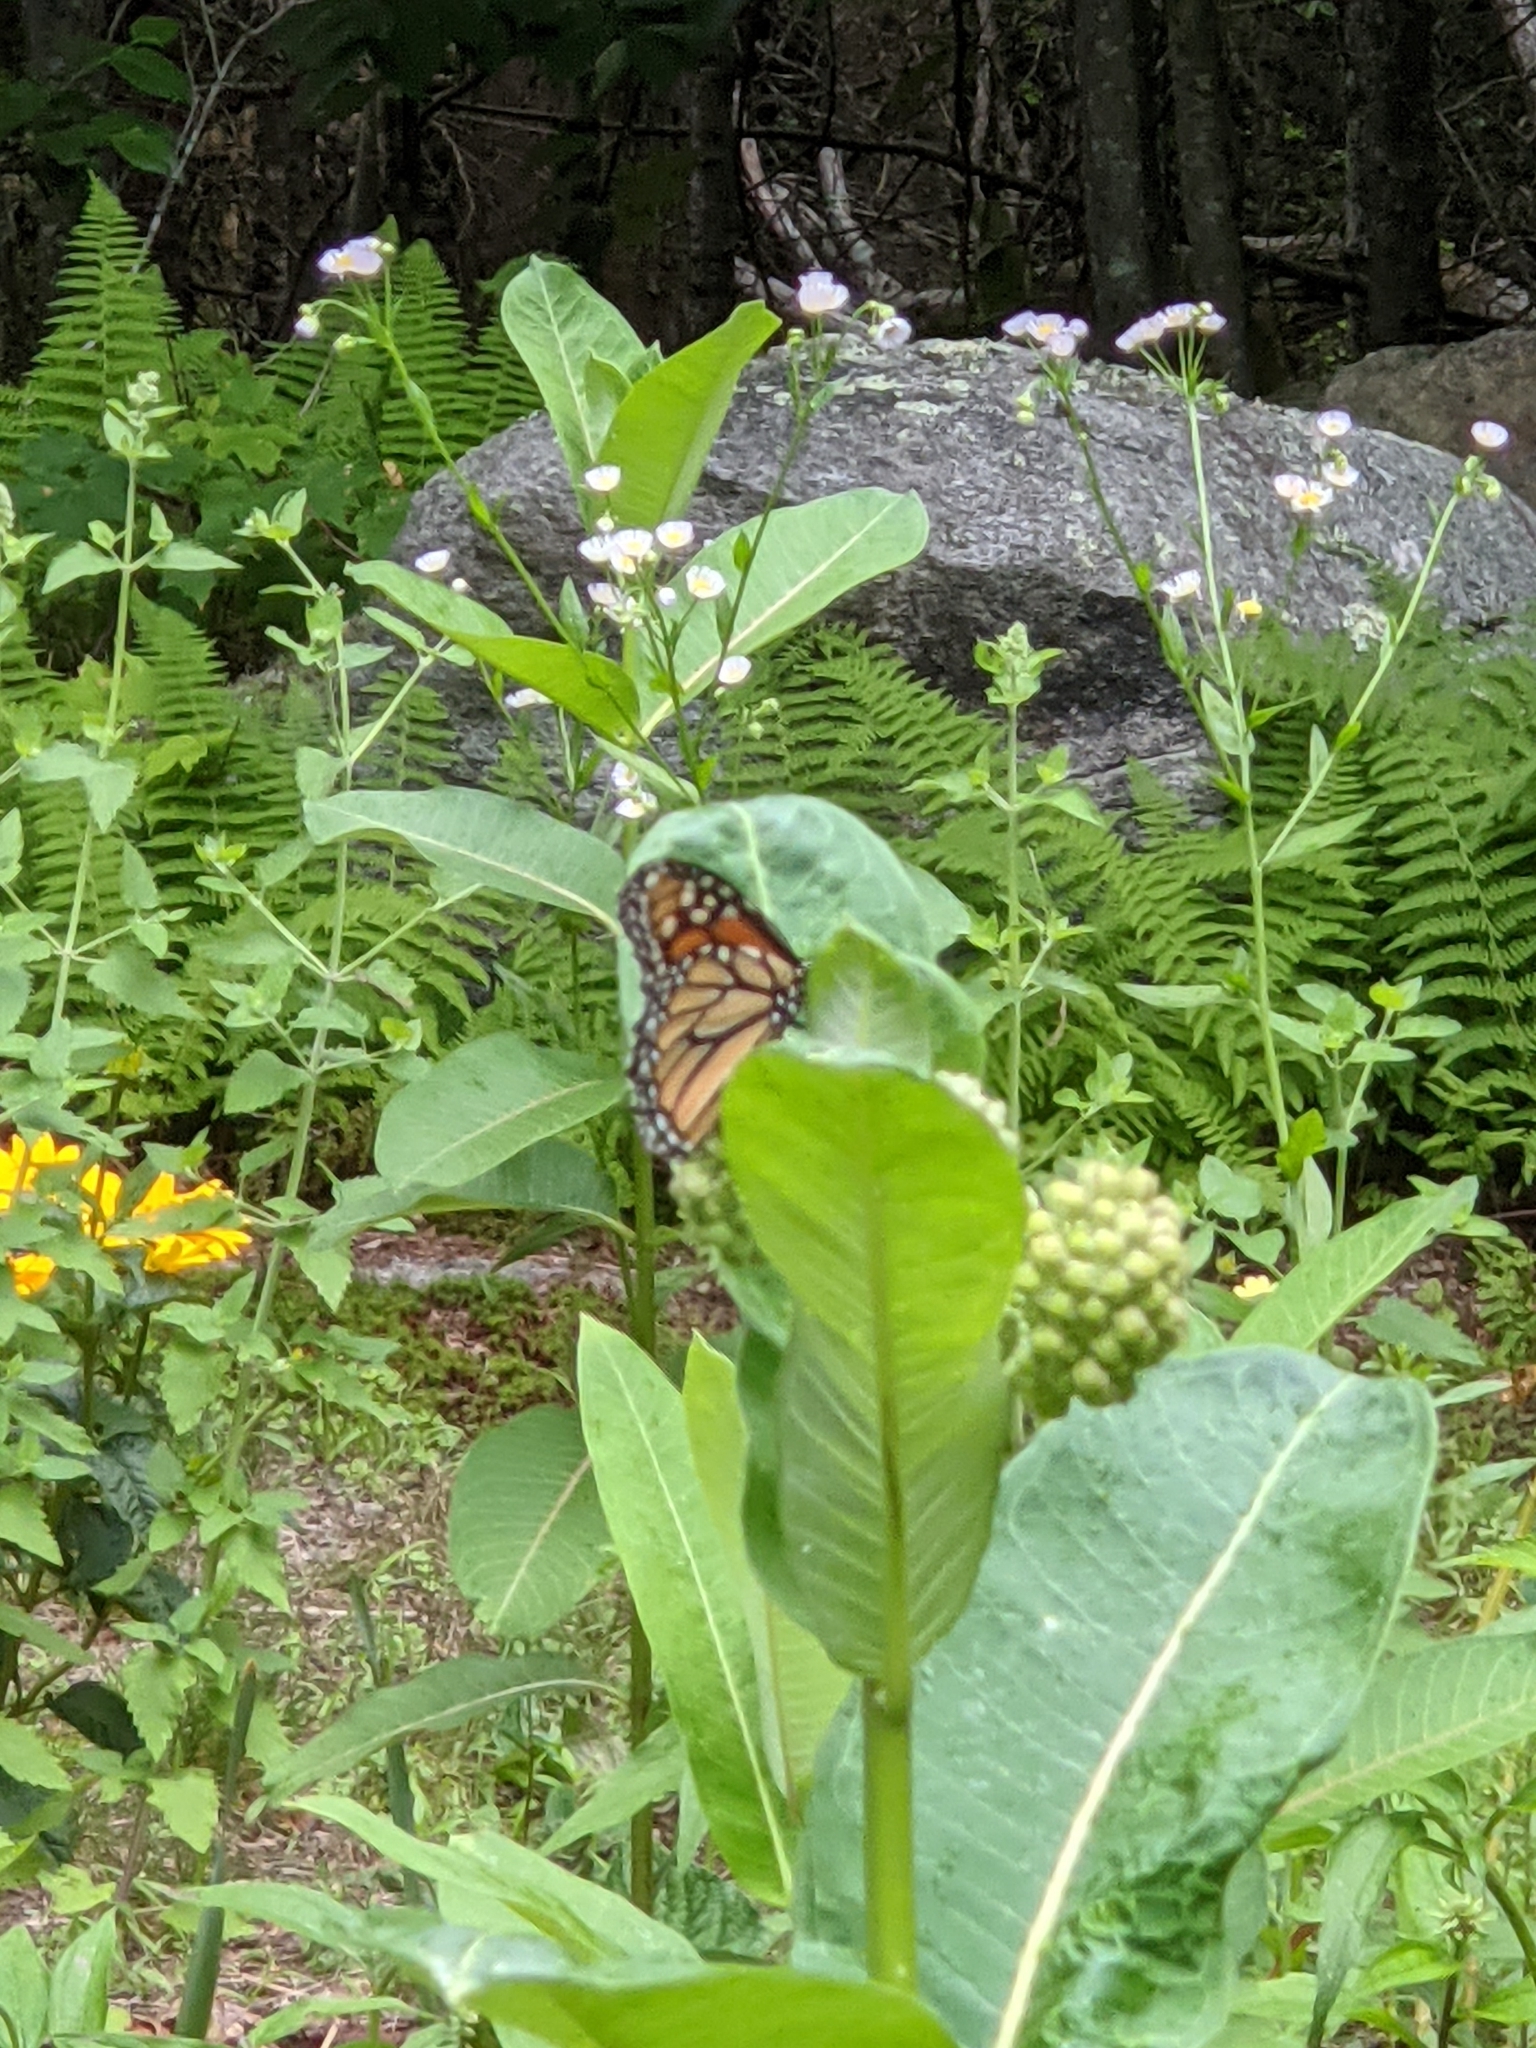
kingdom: Animalia
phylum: Arthropoda
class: Insecta
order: Lepidoptera
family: Nymphalidae
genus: Danaus
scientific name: Danaus plexippus
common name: Monarch
